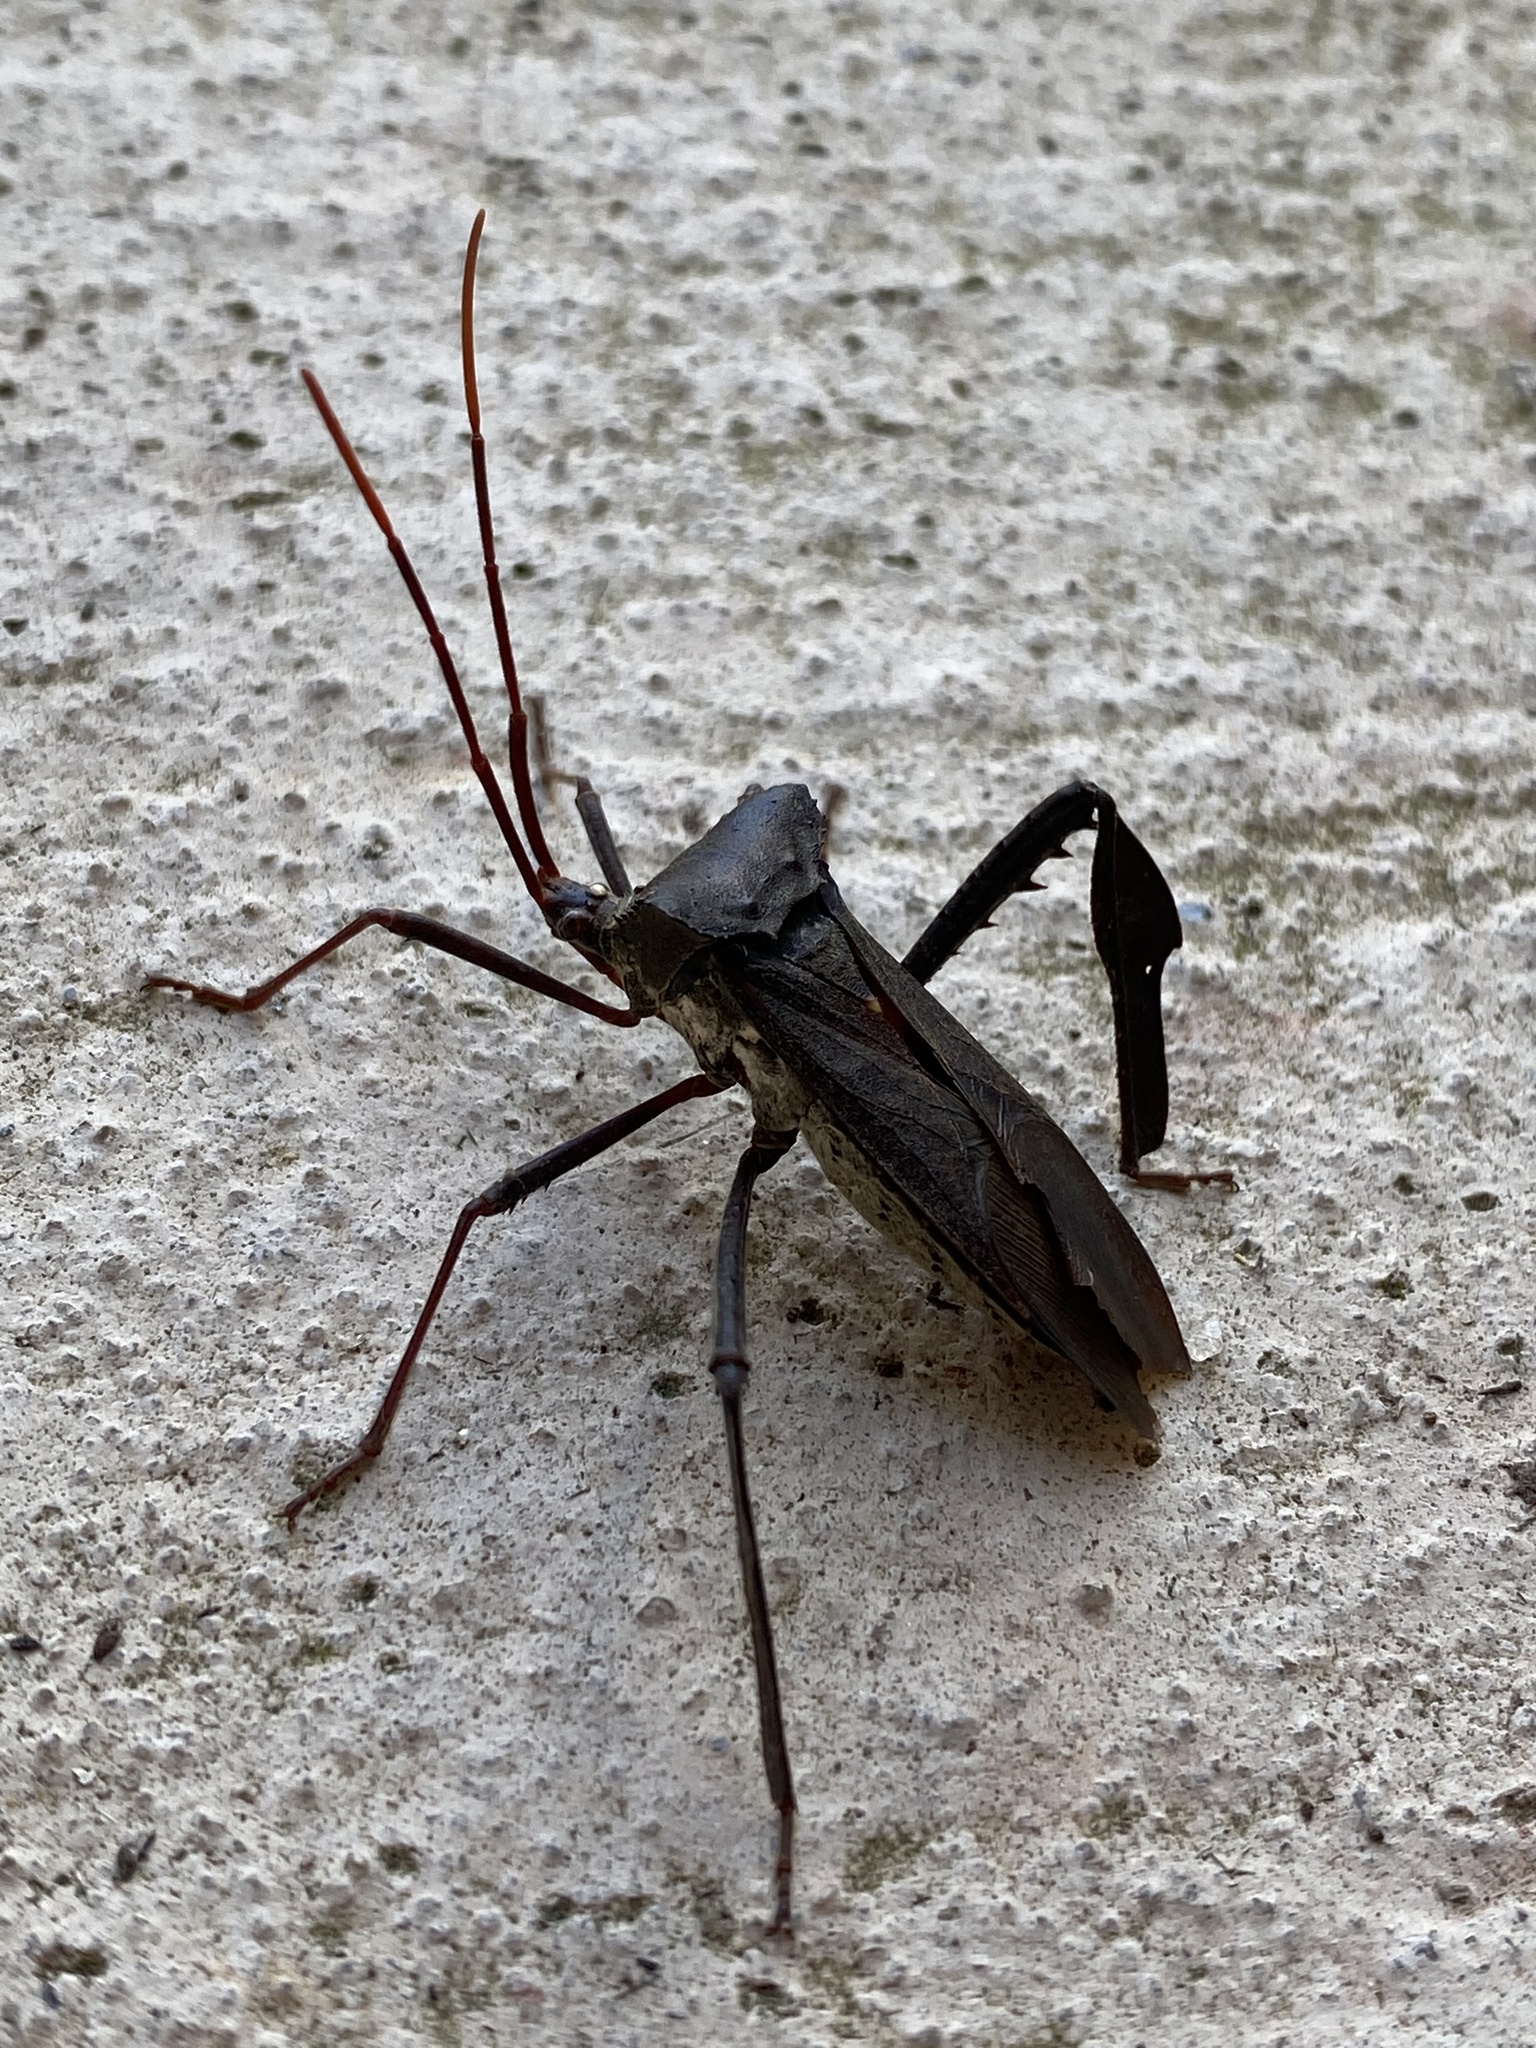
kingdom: Animalia
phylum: Arthropoda
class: Insecta
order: Hemiptera
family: Coreidae
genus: Acanthocephala
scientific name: Acanthocephala declivis
